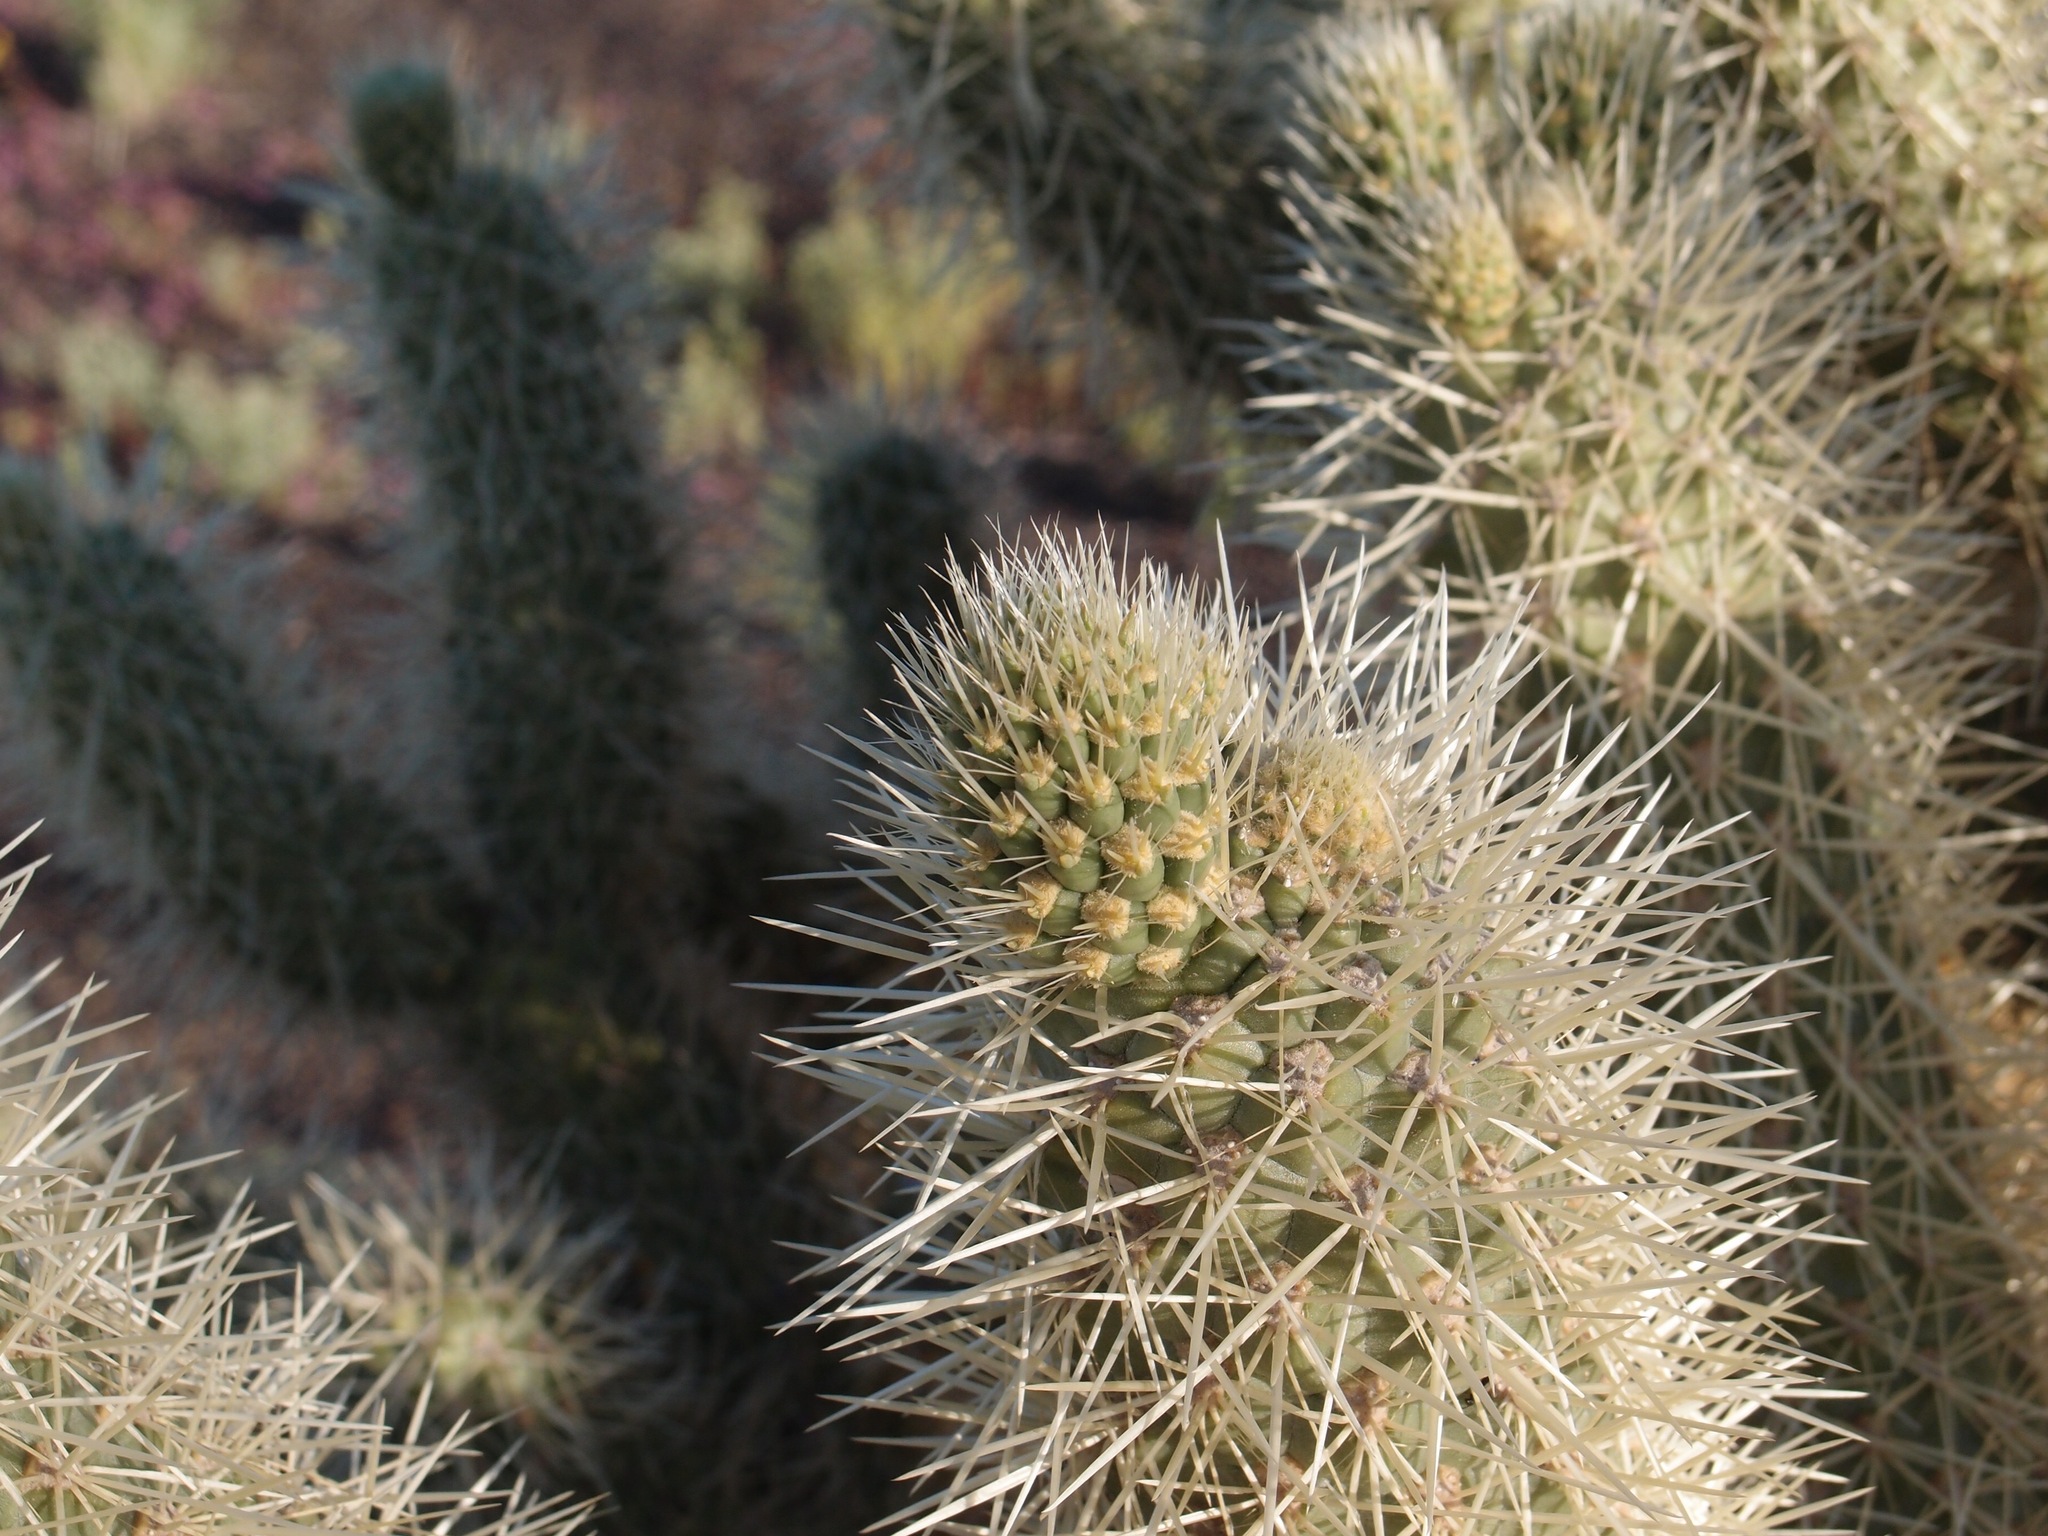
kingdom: Plantae
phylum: Tracheophyta
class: Magnoliopsida
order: Caryophyllales
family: Cactaceae
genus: Cylindropuntia
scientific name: Cylindropuntia fosbergii
